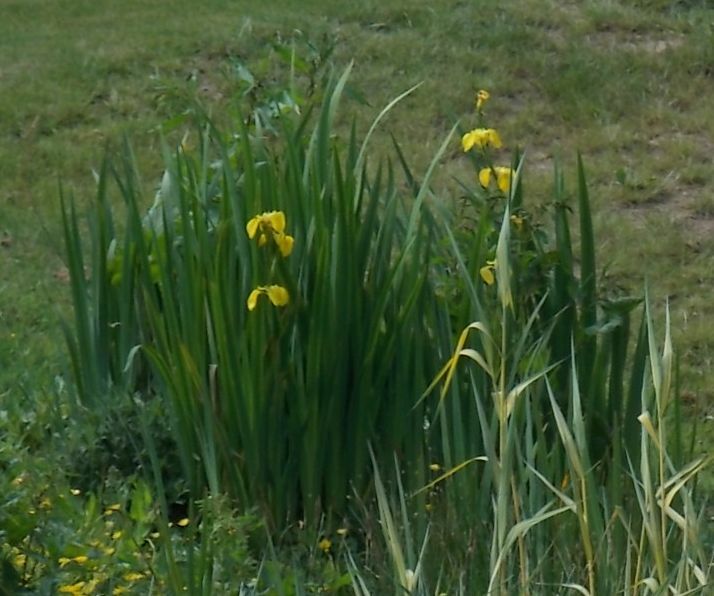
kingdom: Plantae
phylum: Tracheophyta
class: Liliopsida
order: Asparagales
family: Iridaceae
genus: Iris
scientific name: Iris pseudacorus
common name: Yellow flag
